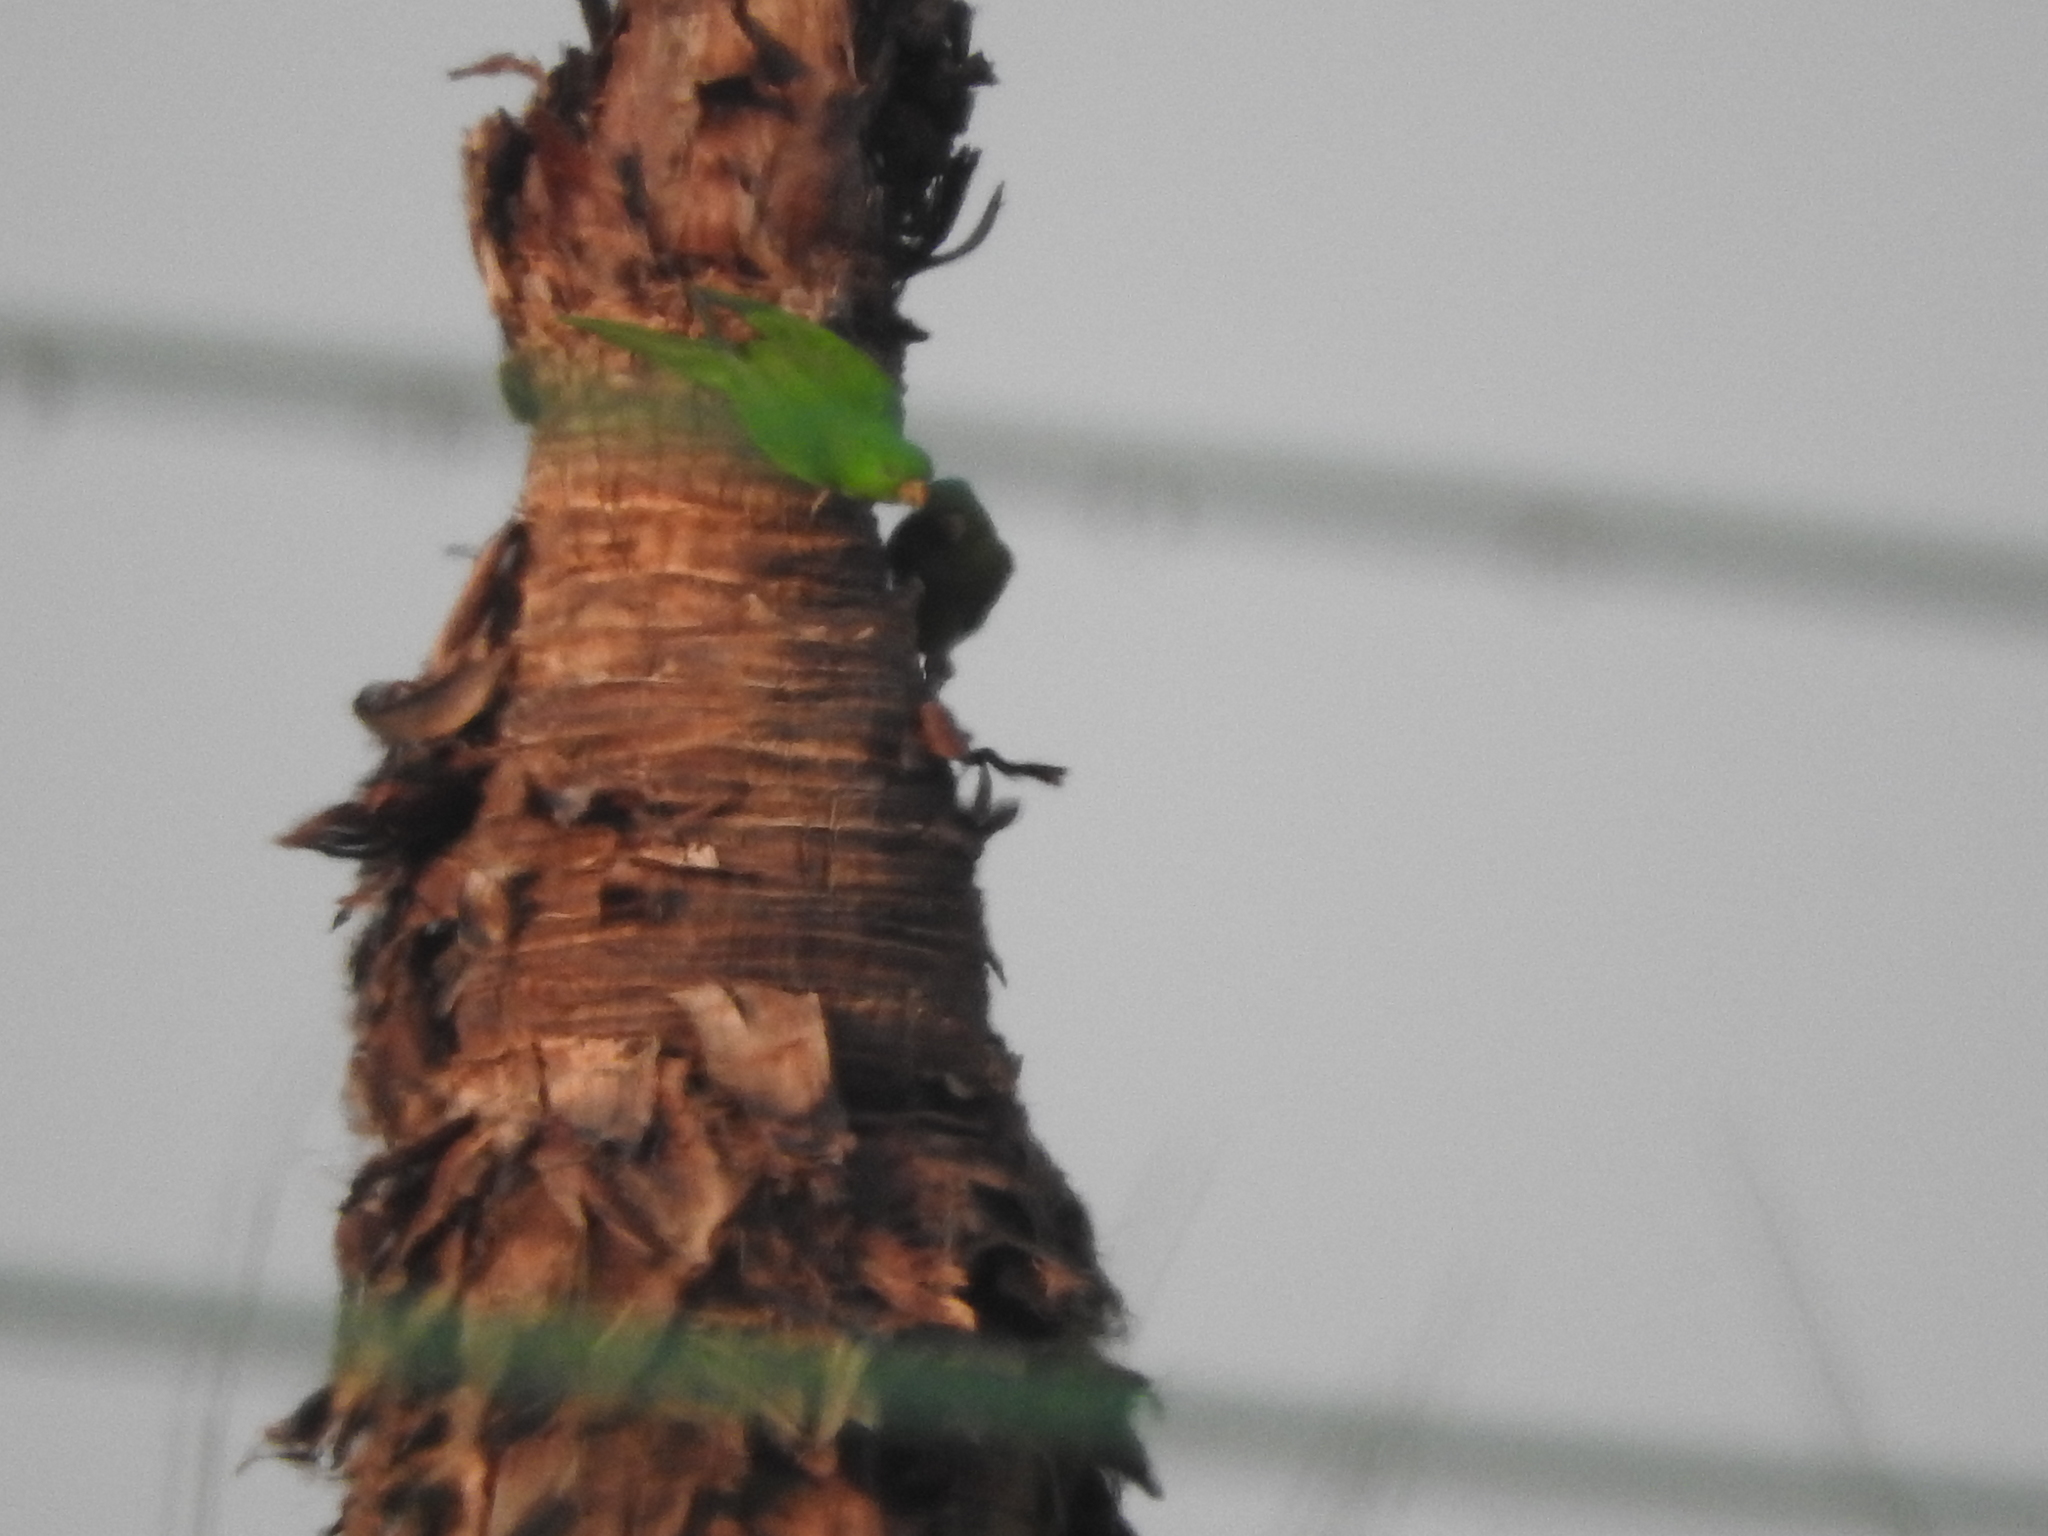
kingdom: Animalia
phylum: Chordata
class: Aves
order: Psittaciformes
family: Psittacidae
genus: Aratinga
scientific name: Aratinga holochlora
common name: Green parakeet
